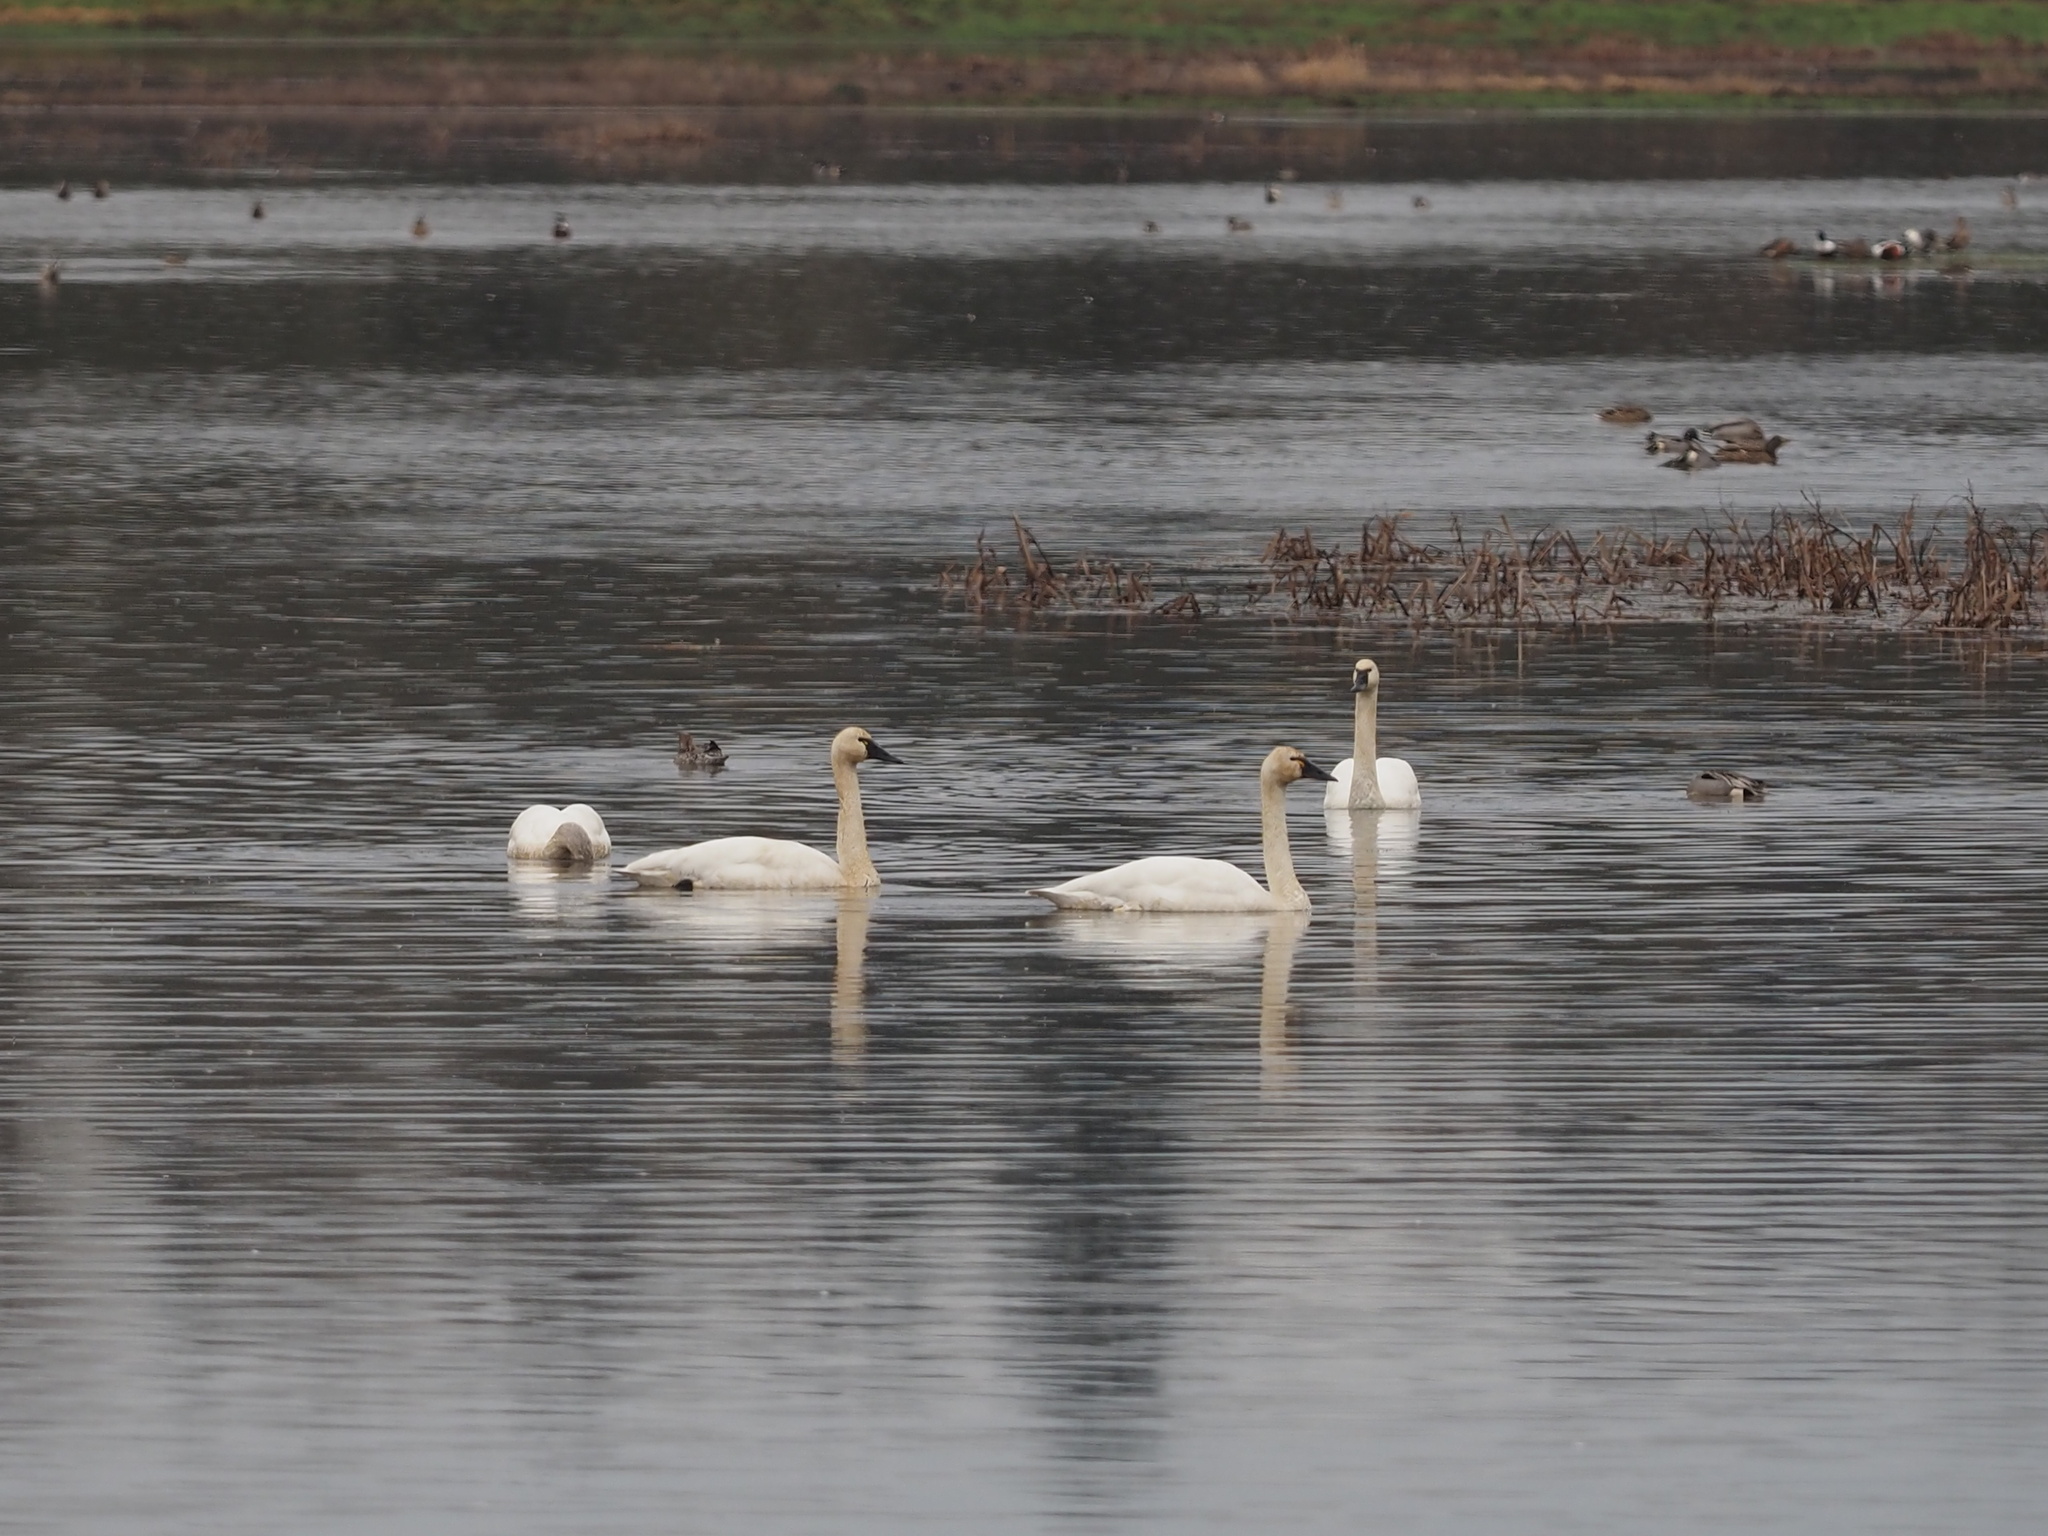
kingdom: Animalia
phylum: Chordata
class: Aves
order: Anseriformes
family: Anatidae
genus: Cygnus
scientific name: Cygnus columbianus
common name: Tundra swan
